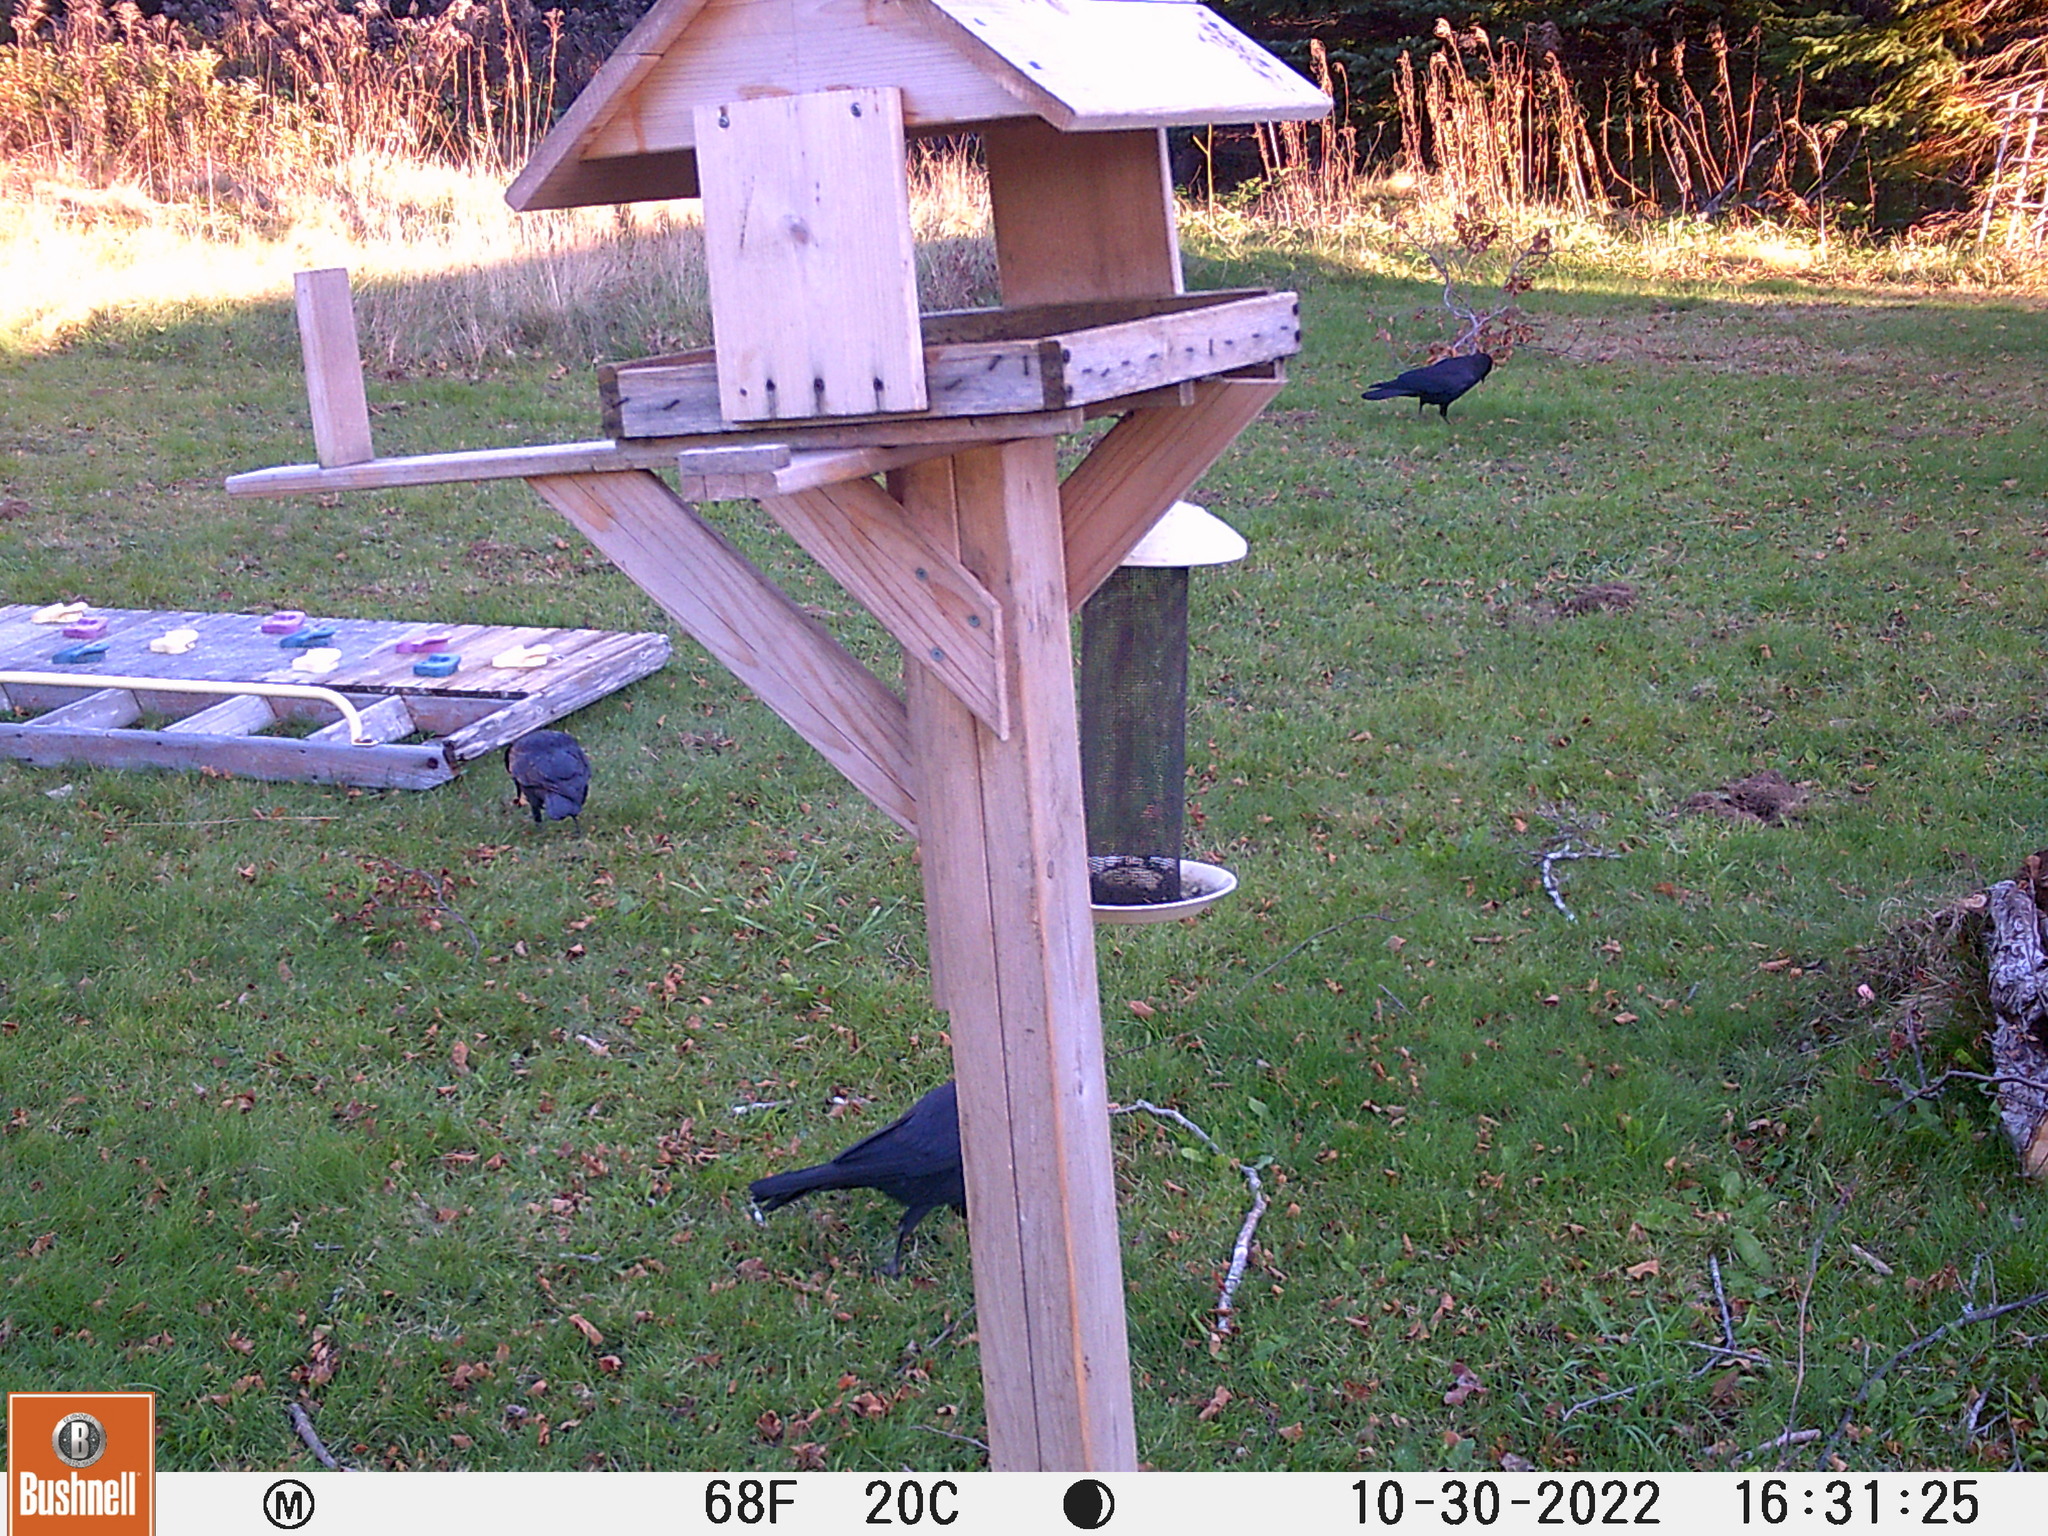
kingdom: Animalia
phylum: Chordata
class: Aves
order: Passeriformes
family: Corvidae
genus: Corvus
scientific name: Corvus brachyrhynchos
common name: American crow
